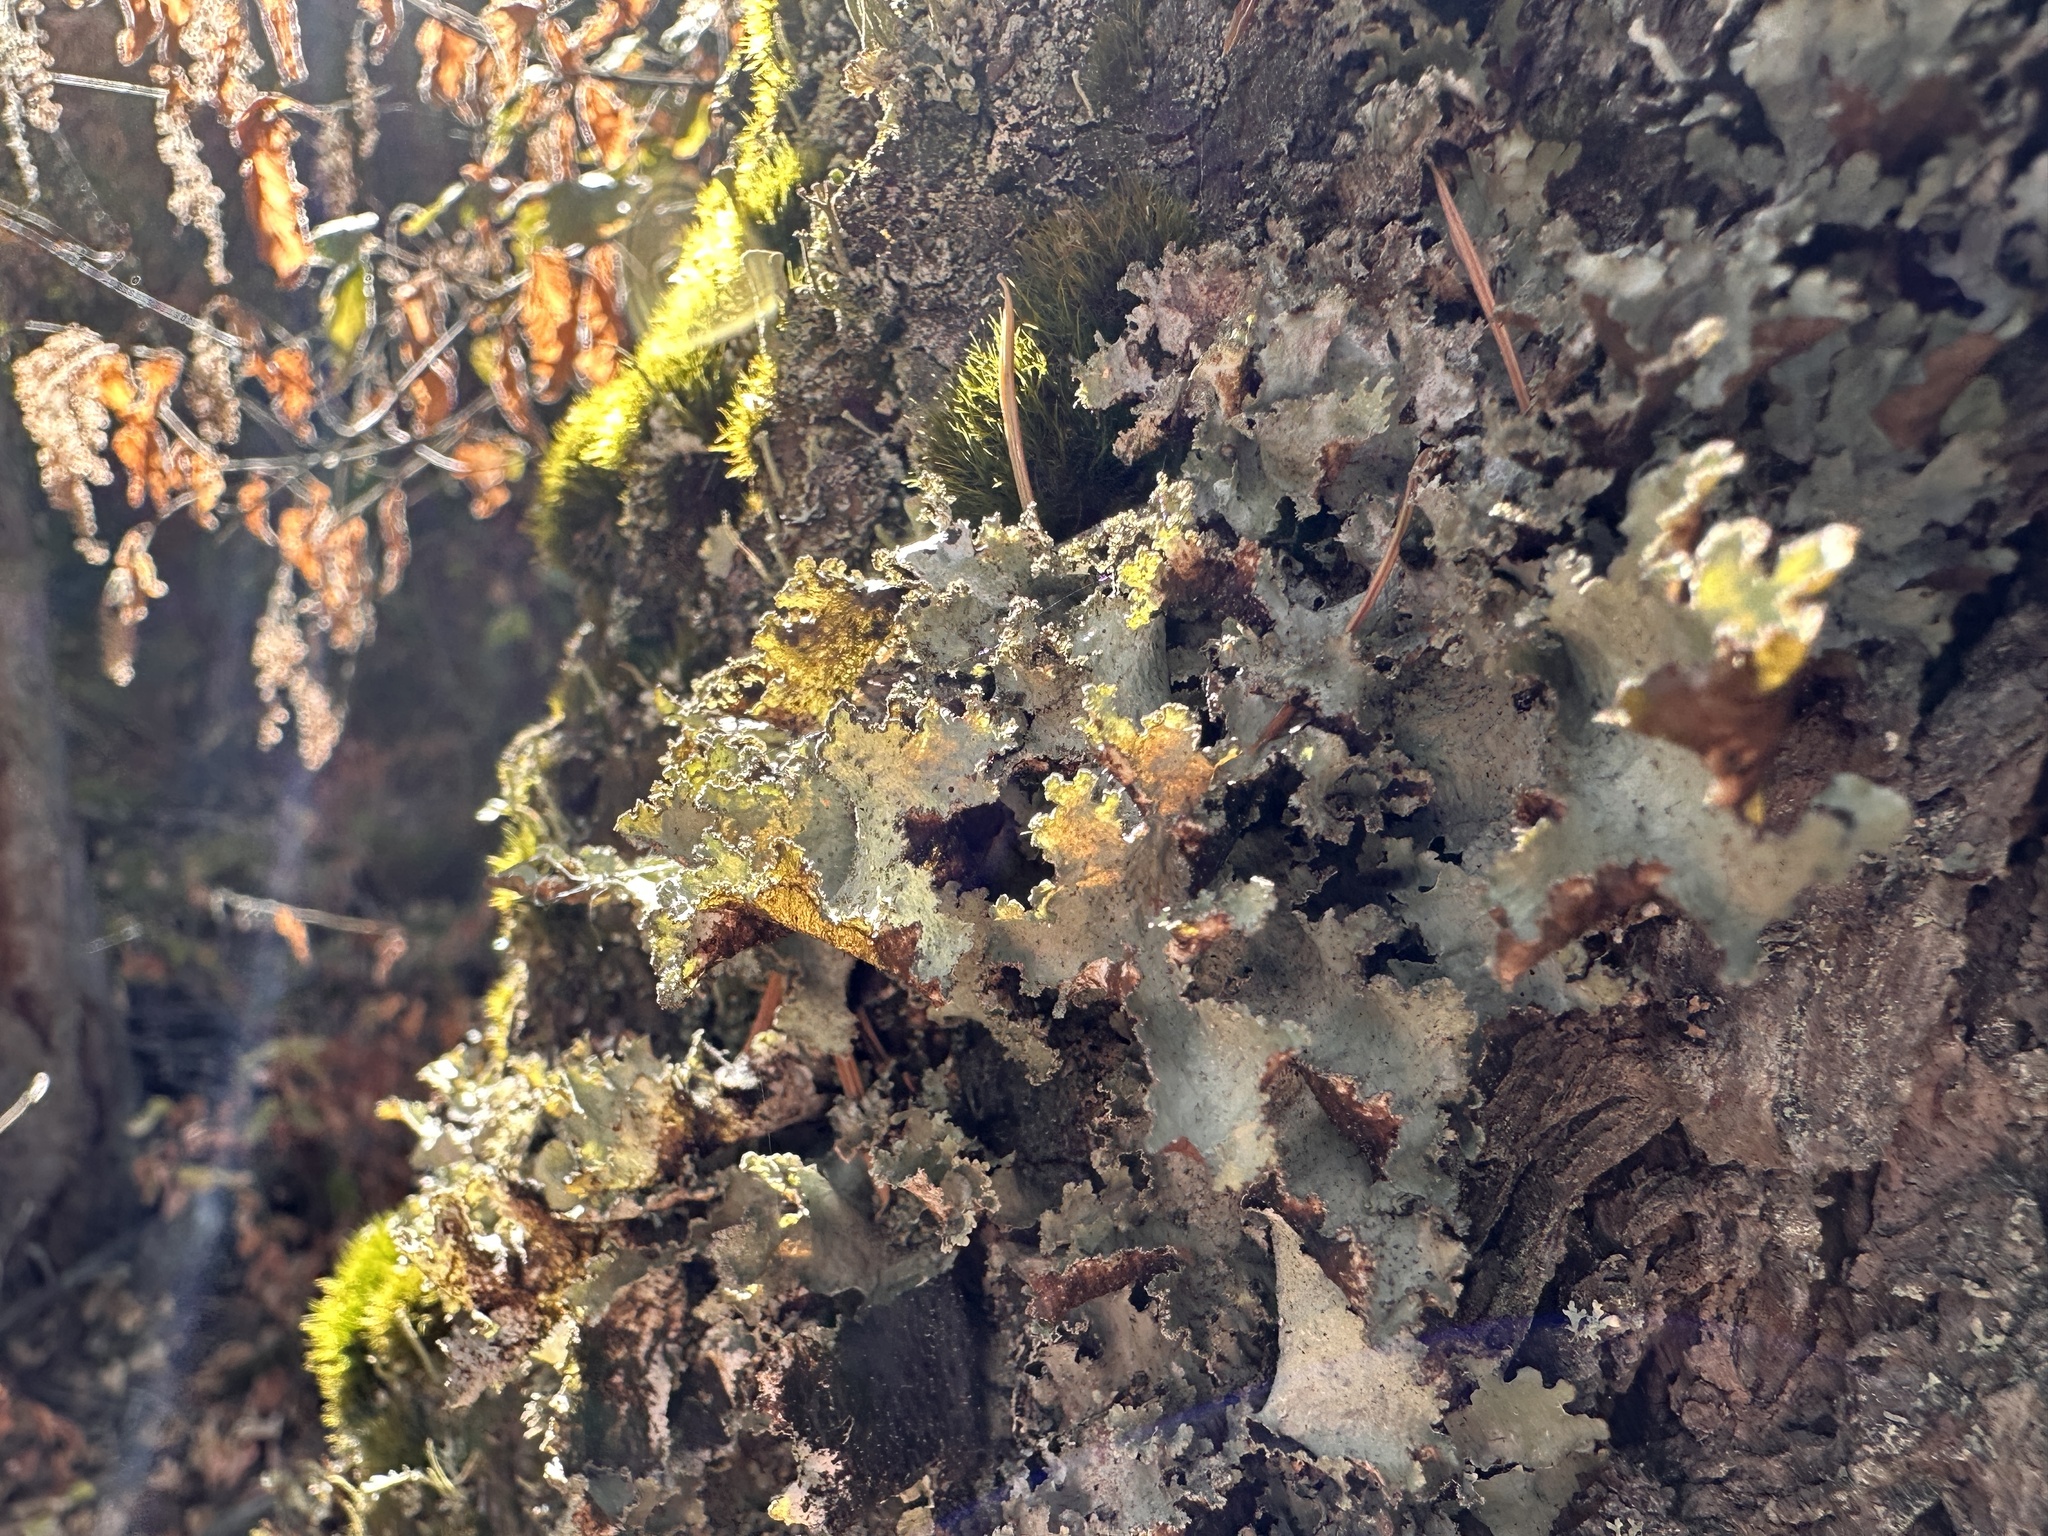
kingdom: Fungi
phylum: Ascomycota
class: Lecanoromycetes
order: Lecanorales
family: Parmeliaceae
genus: Platismatia
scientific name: Platismatia glauca
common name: Varied rag lichen
